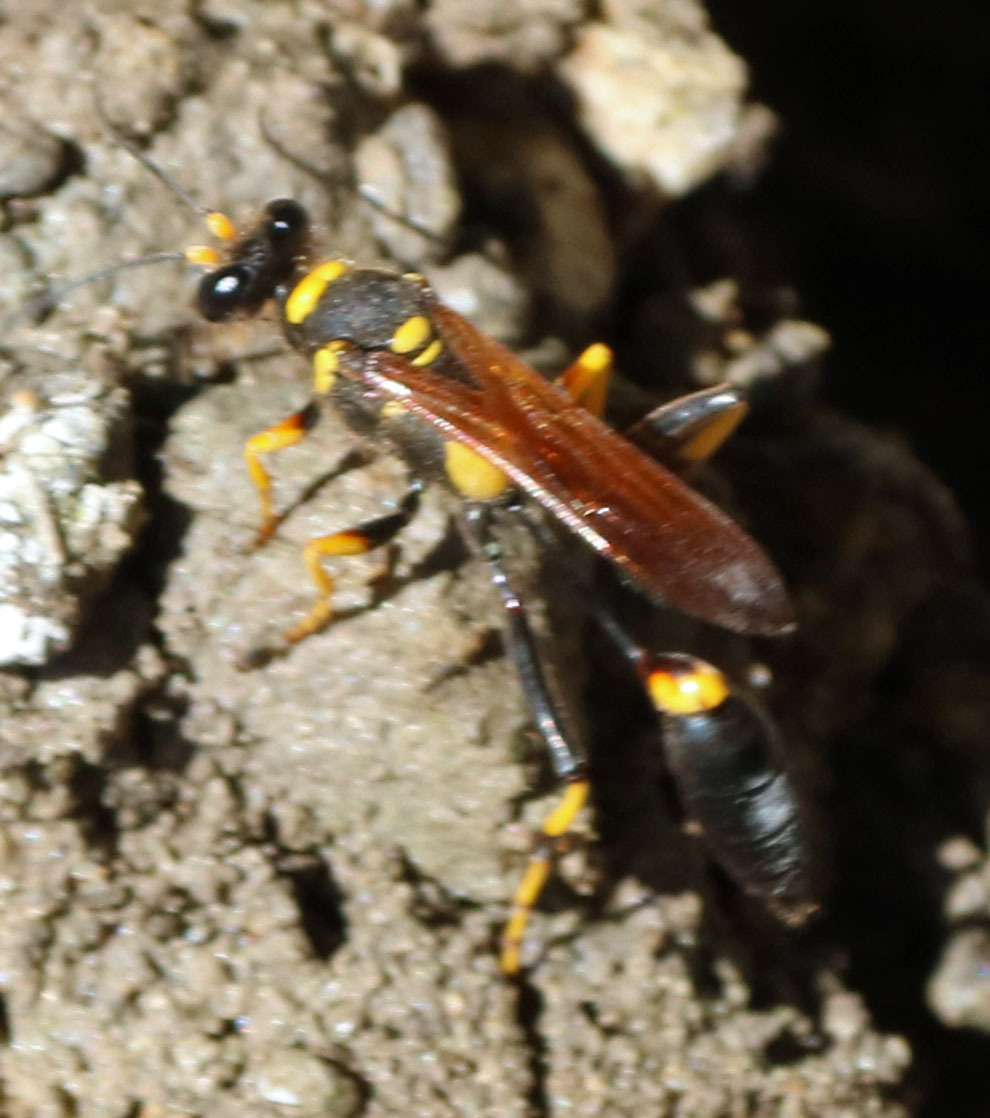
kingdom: Animalia
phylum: Arthropoda
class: Insecta
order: Hymenoptera
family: Sphecidae
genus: Sceliphron
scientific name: Sceliphron caementarium
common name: Mud dauber
